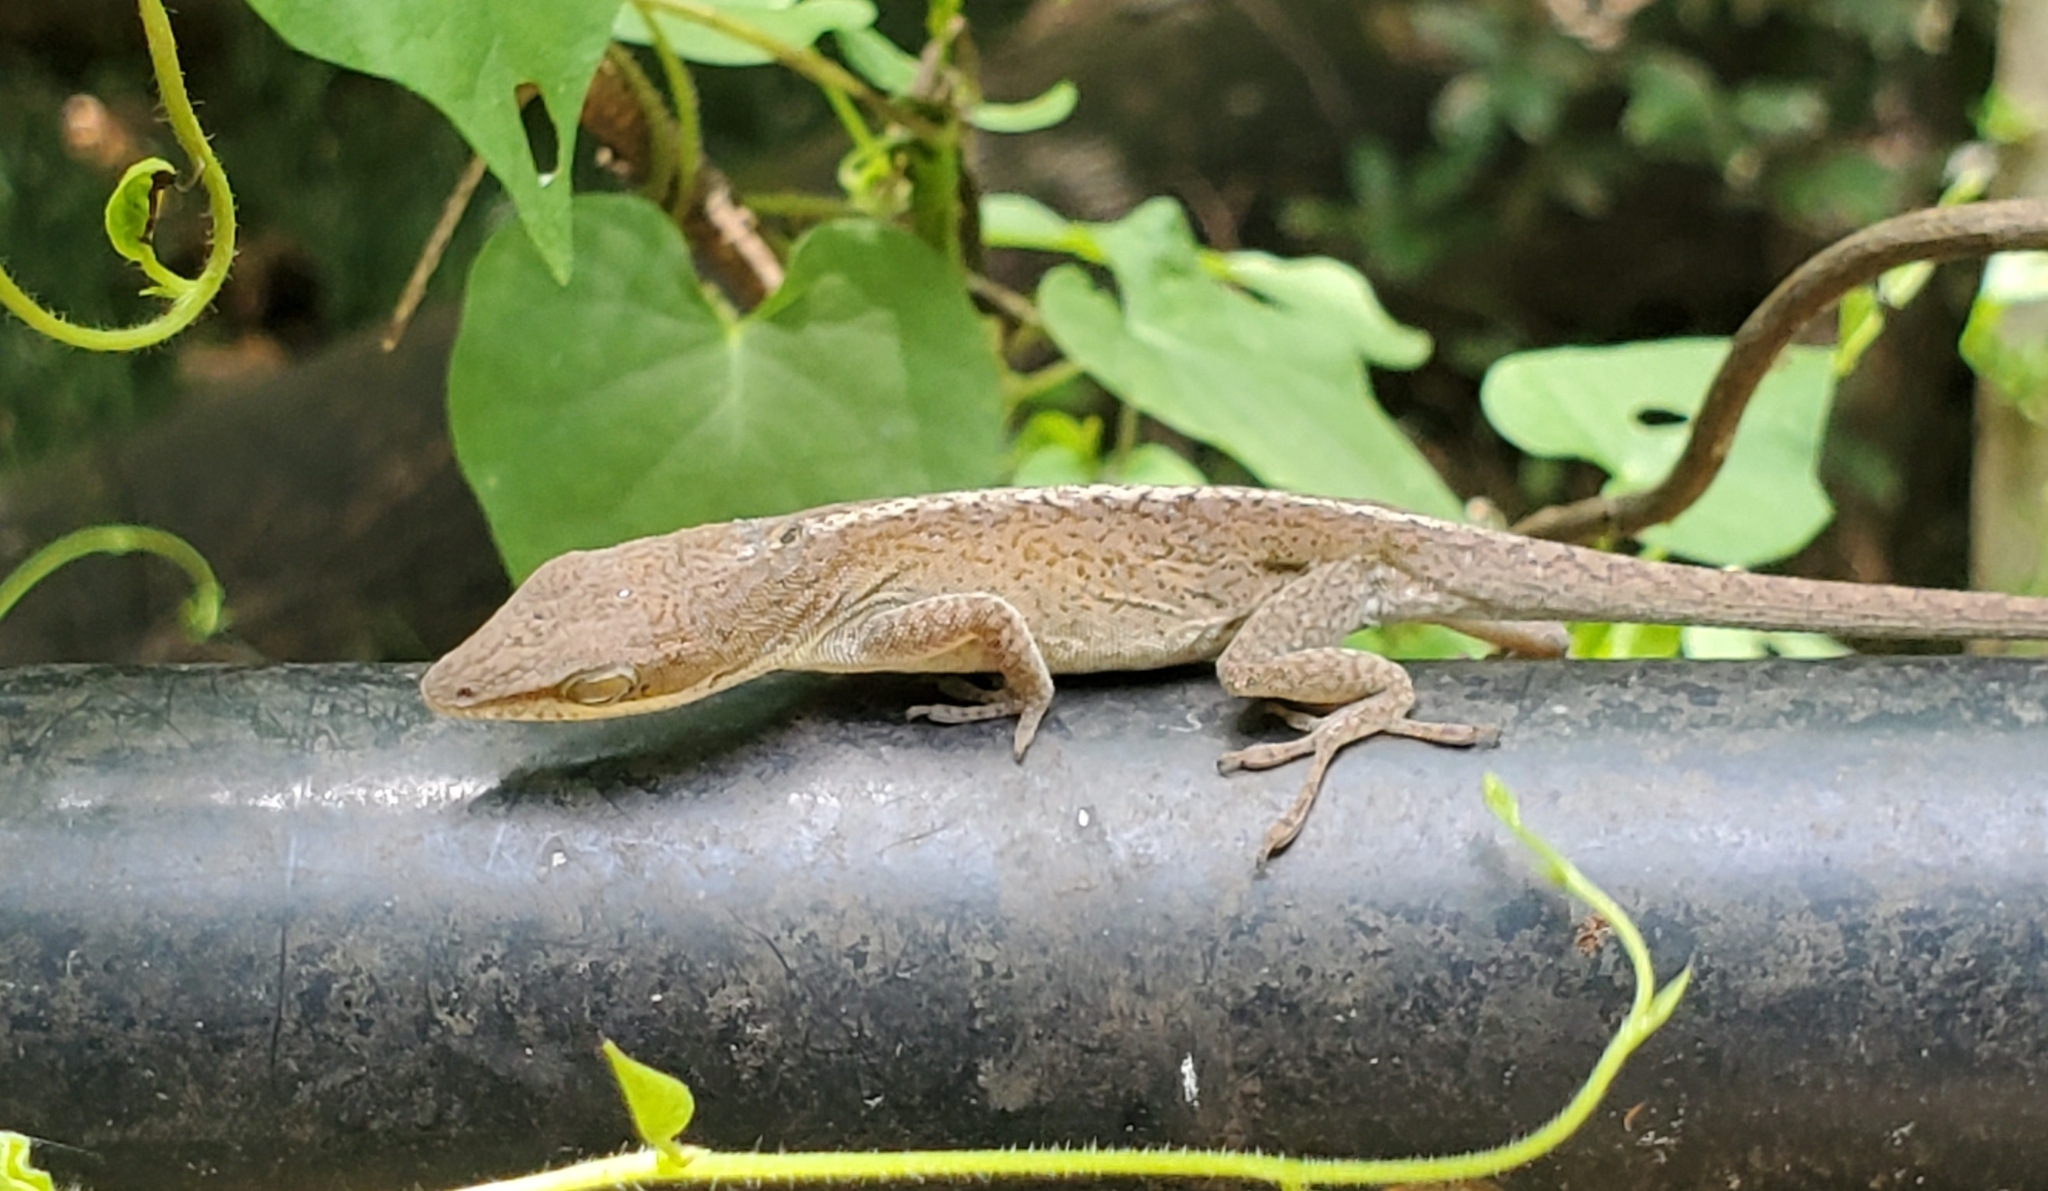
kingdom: Animalia
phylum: Chordata
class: Squamata
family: Dactyloidae
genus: Anolis
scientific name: Anolis carolinensis
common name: Green anole
